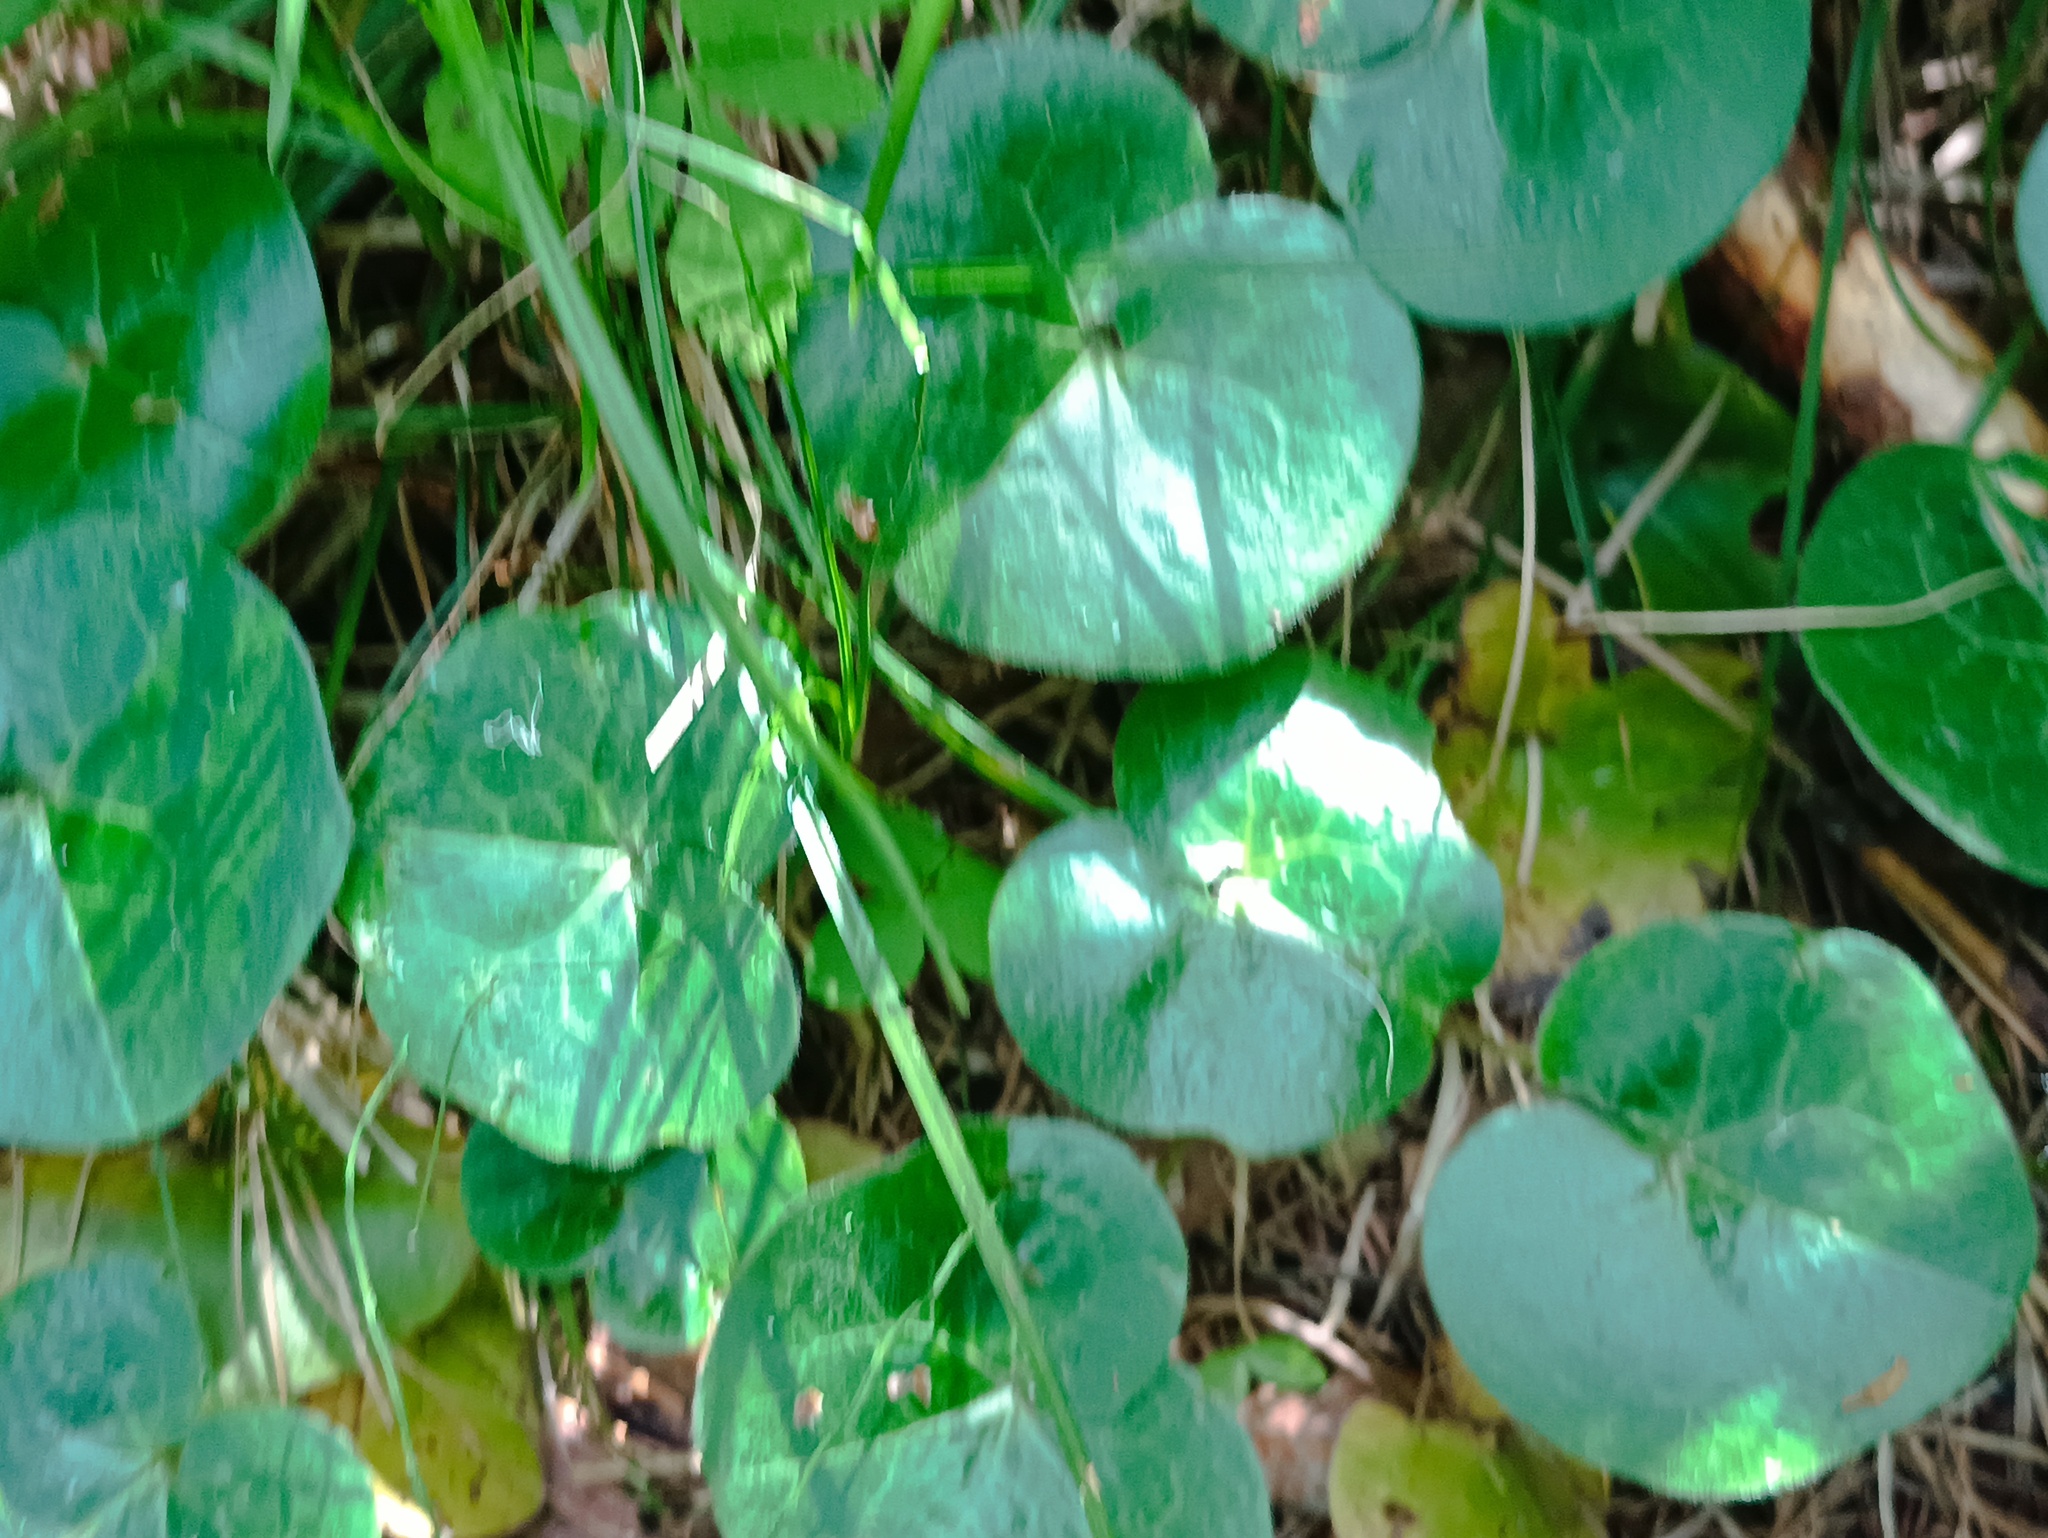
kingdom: Plantae
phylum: Tracheophyta
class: Magnoliopsida
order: Piperales
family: Aristolochiaceae
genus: Asarum
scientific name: Asarum europaeum
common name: Asarabacca
